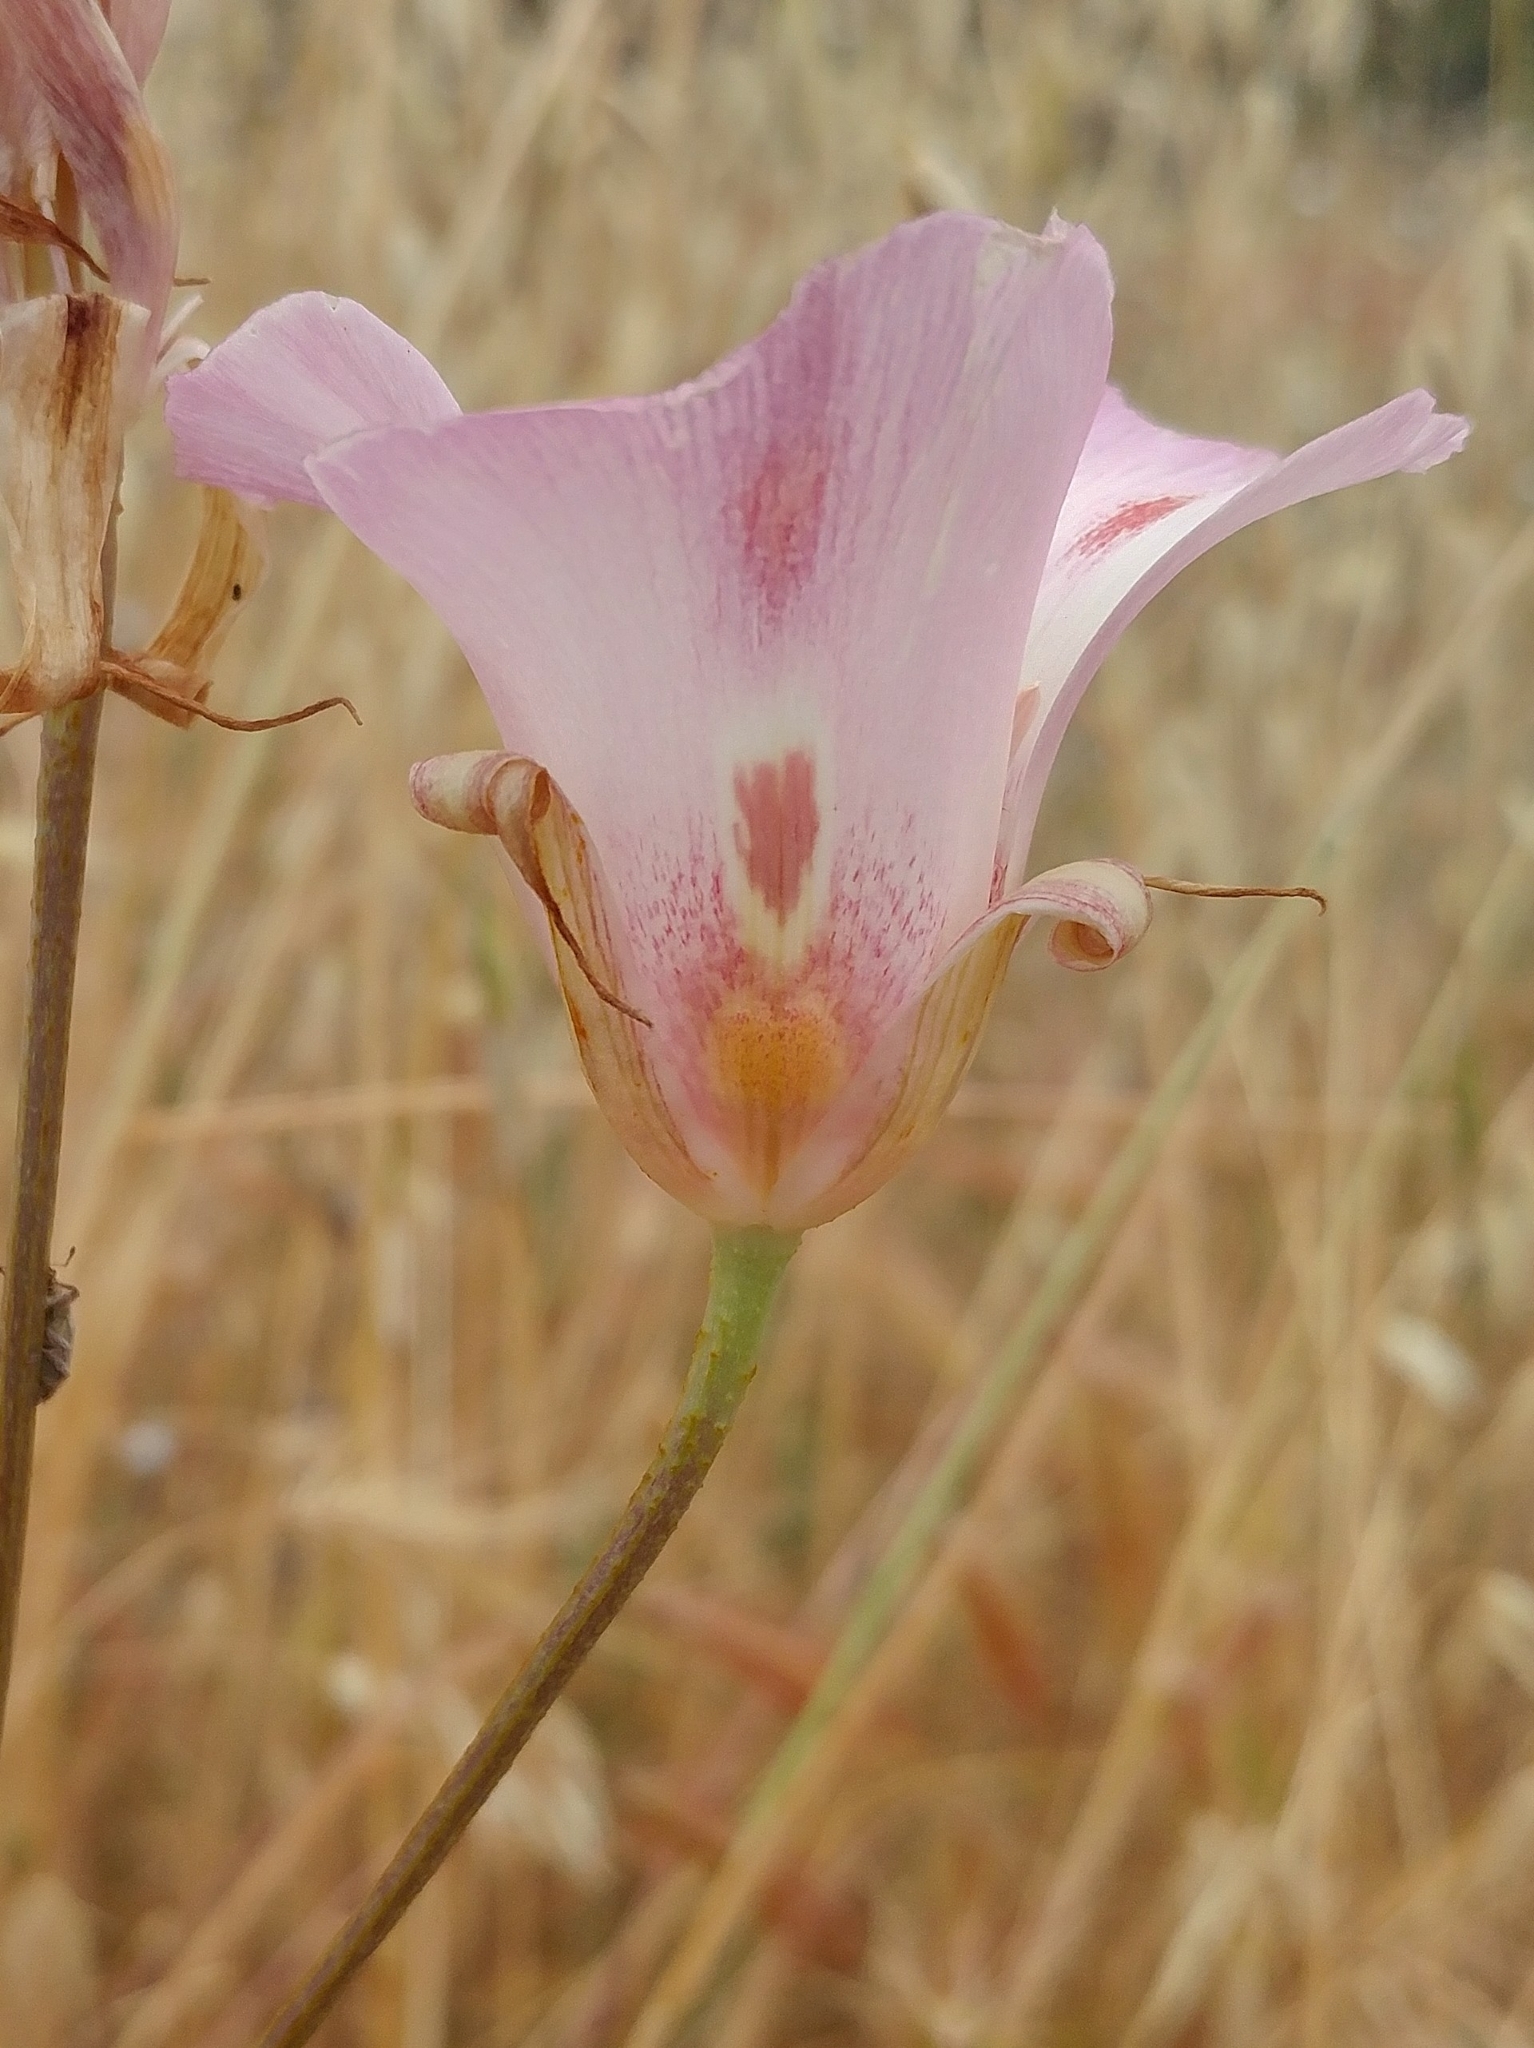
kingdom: Plantae
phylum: Tracheophyta
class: Liliopsida
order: Liliales
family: Liliaceae
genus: Calochortus
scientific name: Calochortus venustus
